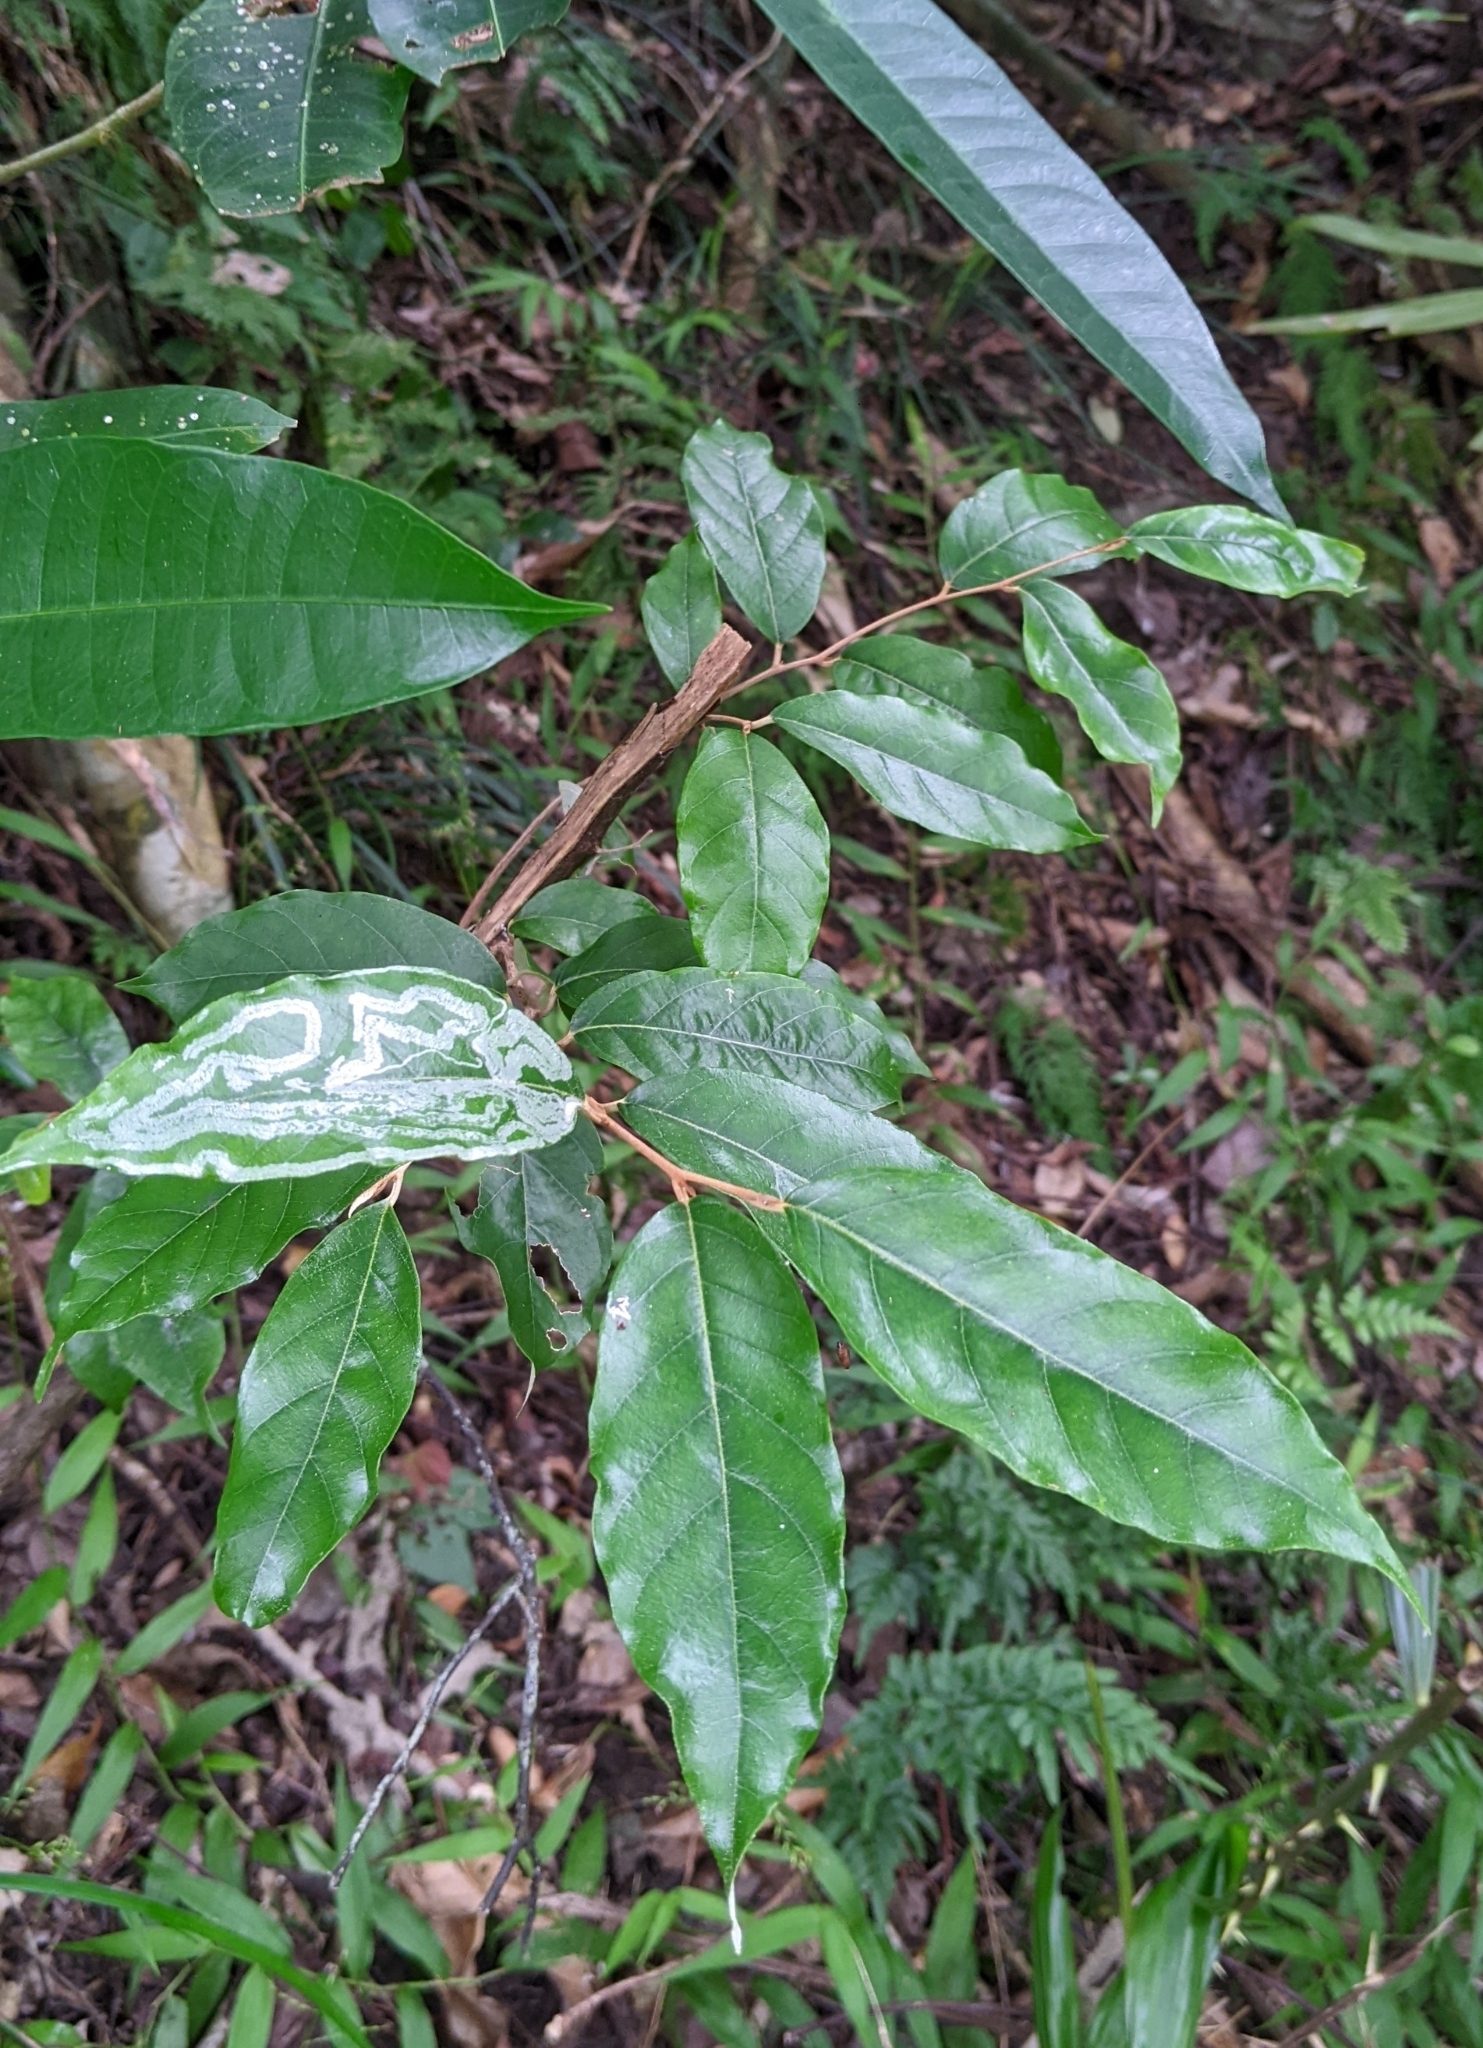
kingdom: Plantae
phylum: Tracheophyta
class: Magnoliopsida
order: Ericales
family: Styracaceae
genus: Styrax
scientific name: Styrax suberifolius
